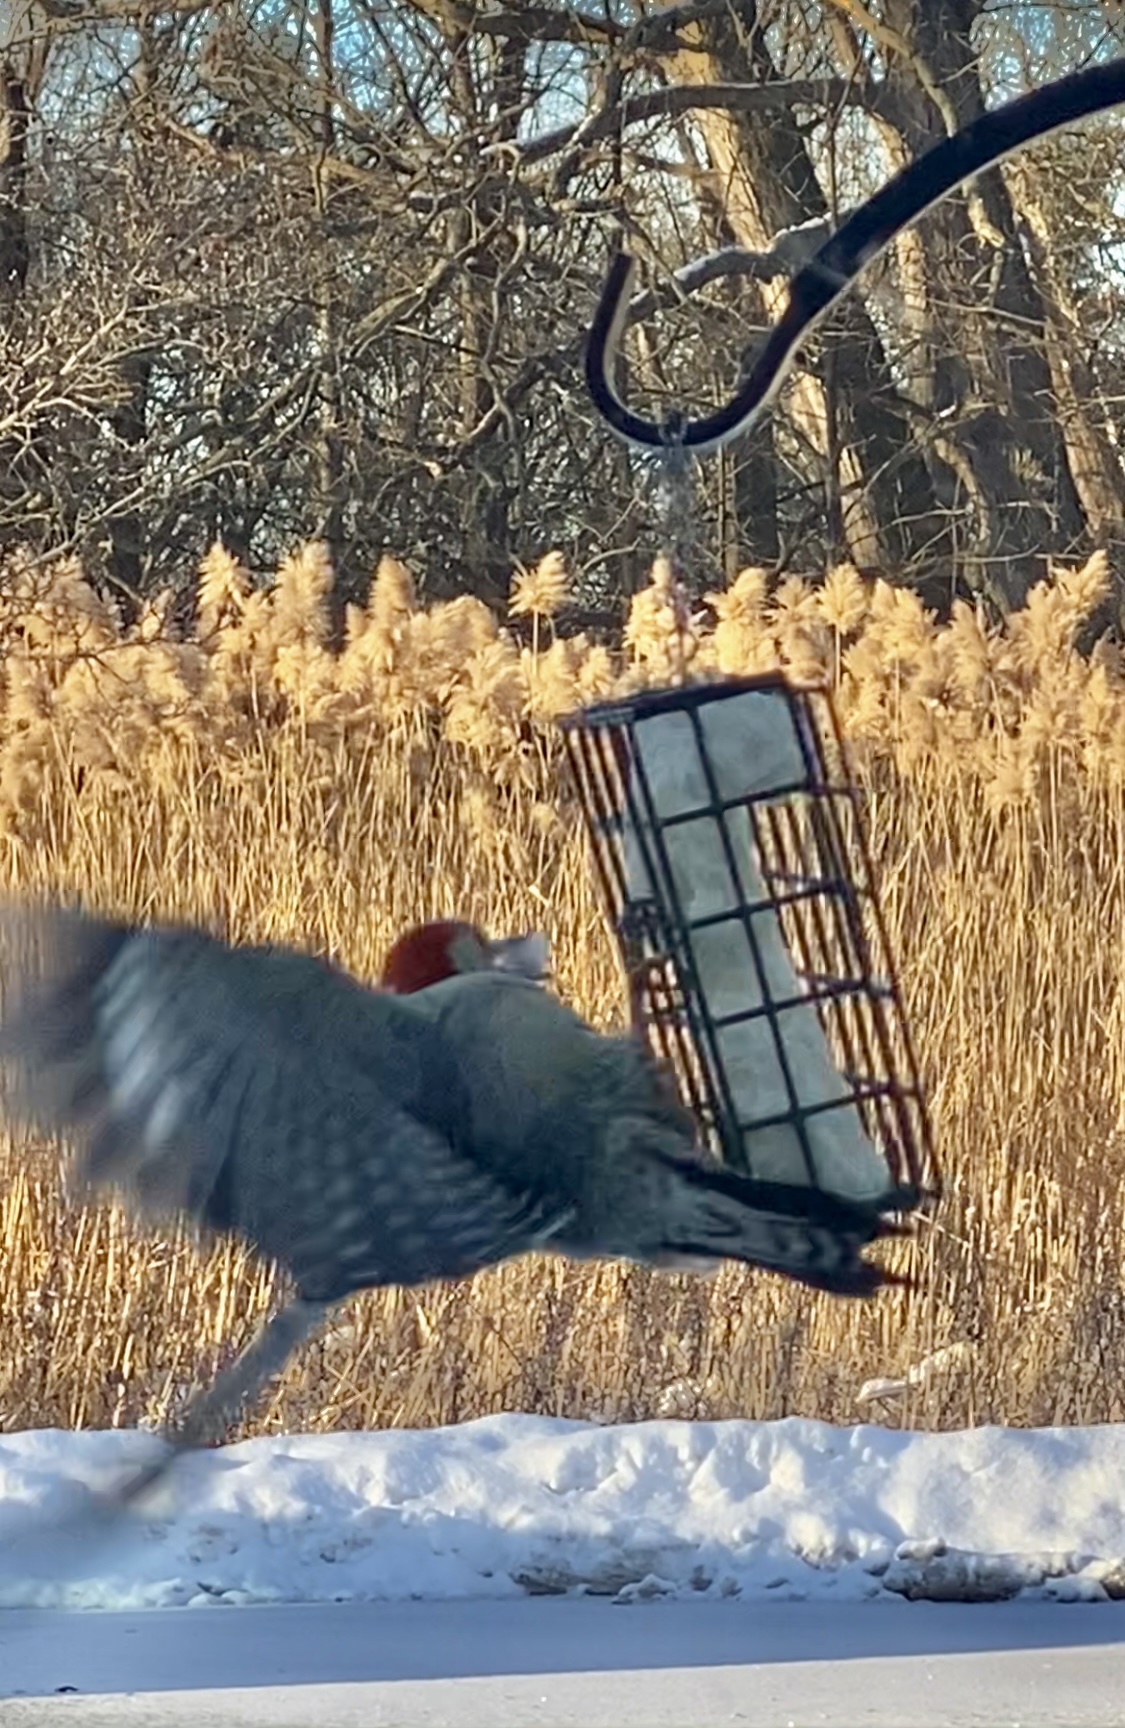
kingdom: Animalia
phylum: Chordata
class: Aves
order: Piciformes
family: Picidae
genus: Melanerpes
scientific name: Melanerpes carolinus
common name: Red-bellied woodpecker
